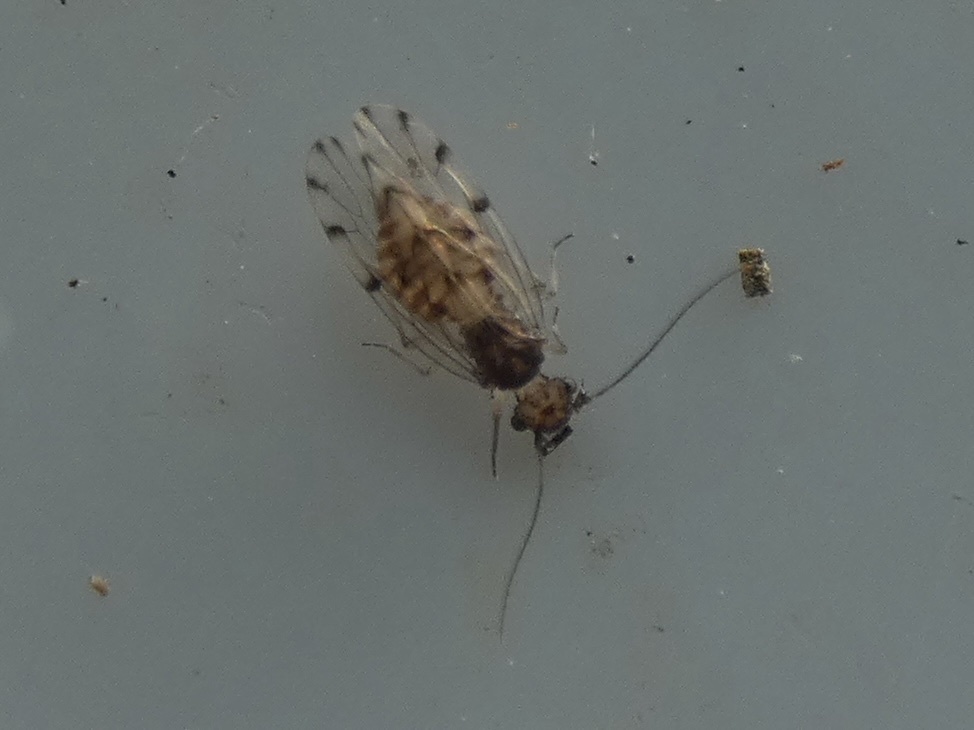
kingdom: Animalia
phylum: Arthropoda
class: Insecta
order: Psocodea
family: Ectopsocidae
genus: Ectopsocus
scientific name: Ectopsocus petersi
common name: Medium-sized bark louse
